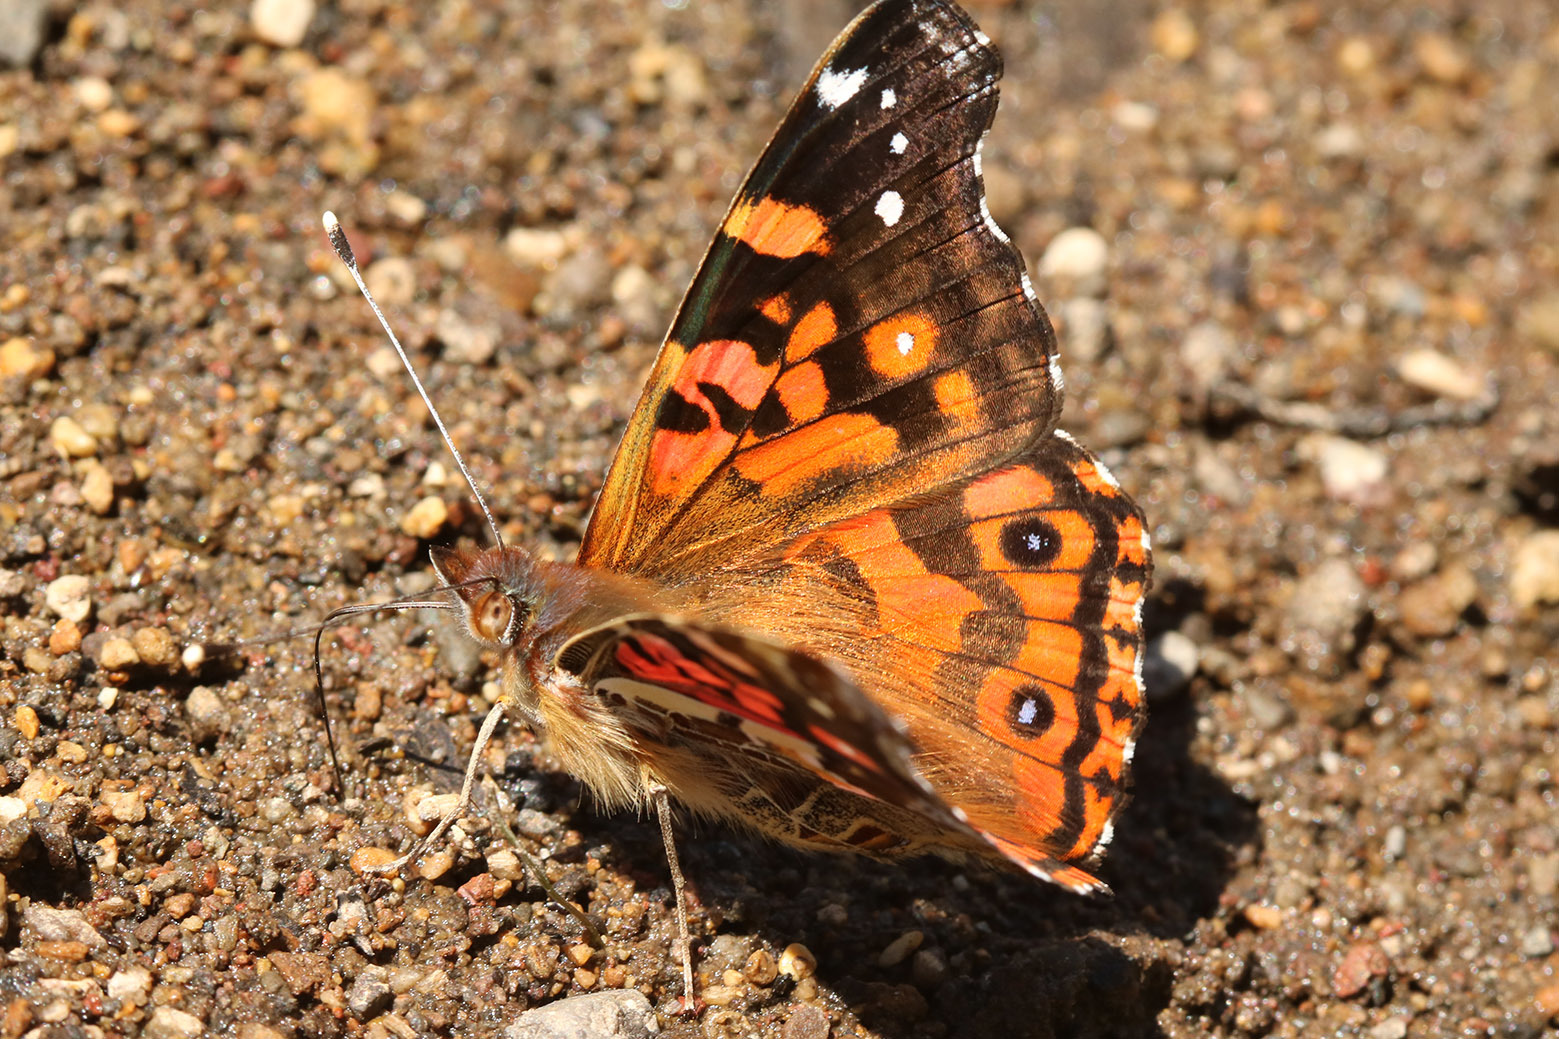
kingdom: Animalia
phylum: Arthropoda
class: Insecta
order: Lepidoptera
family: Nymphalidae
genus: Vanessa
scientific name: Vanessa terpsichore
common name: Chilean lady
